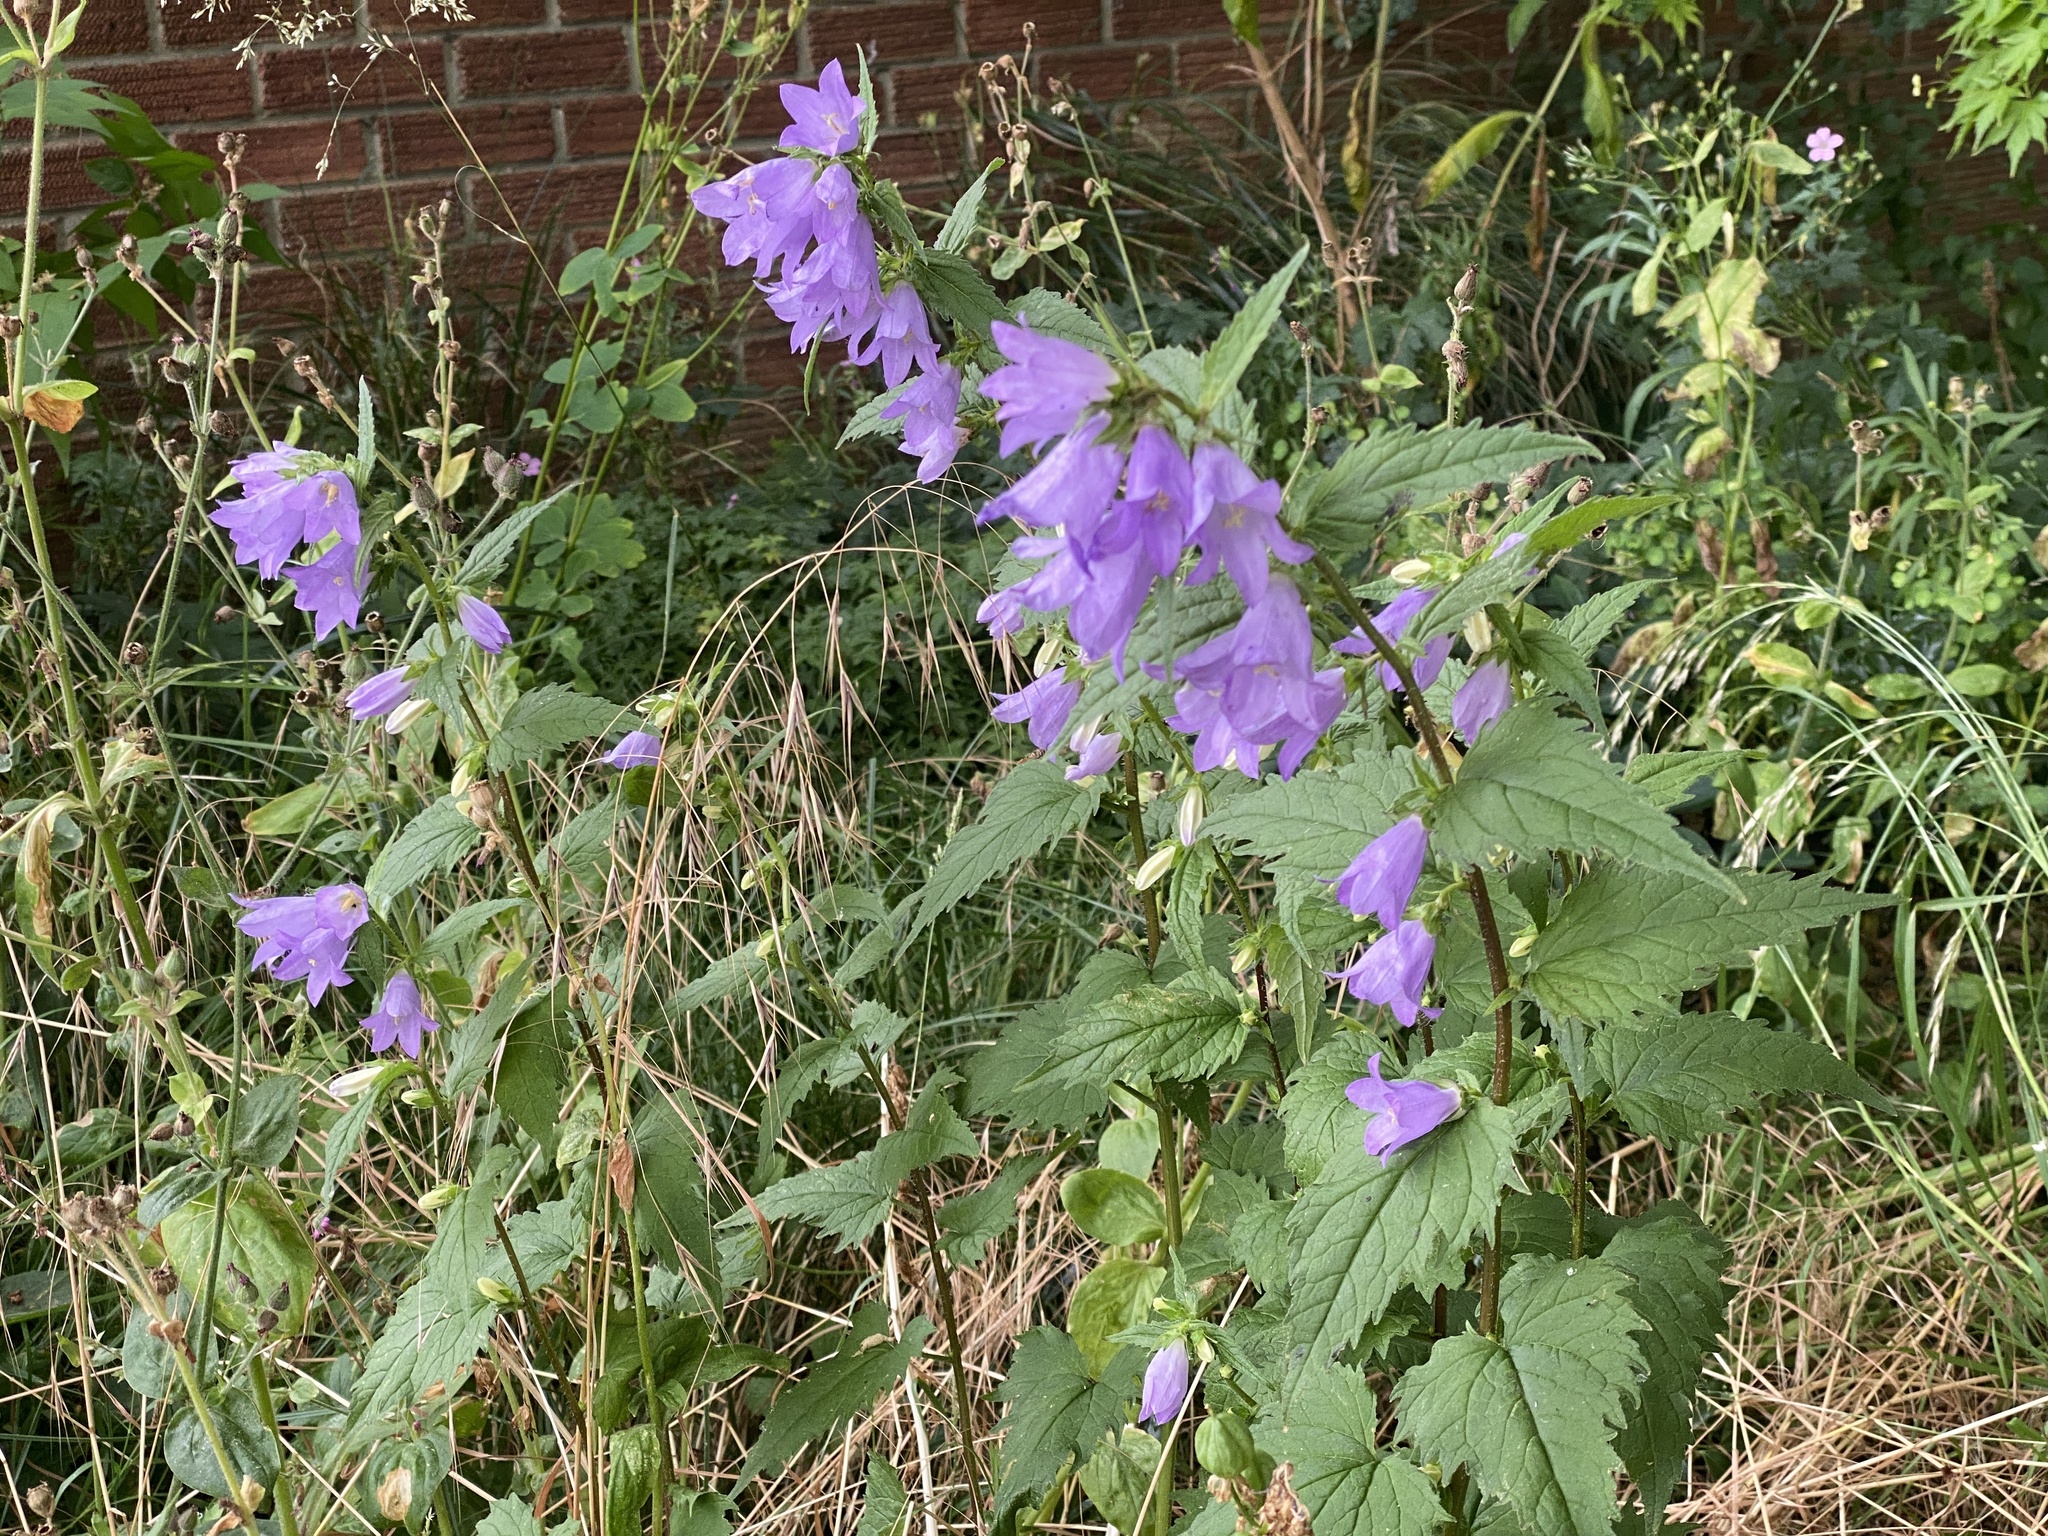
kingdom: Plantae
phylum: Tracheophyta
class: Magnoliopsida
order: Asterales
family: Campanulaceae
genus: Campanula
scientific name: Campanula trachelium
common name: Nettle-leaved bellflower
